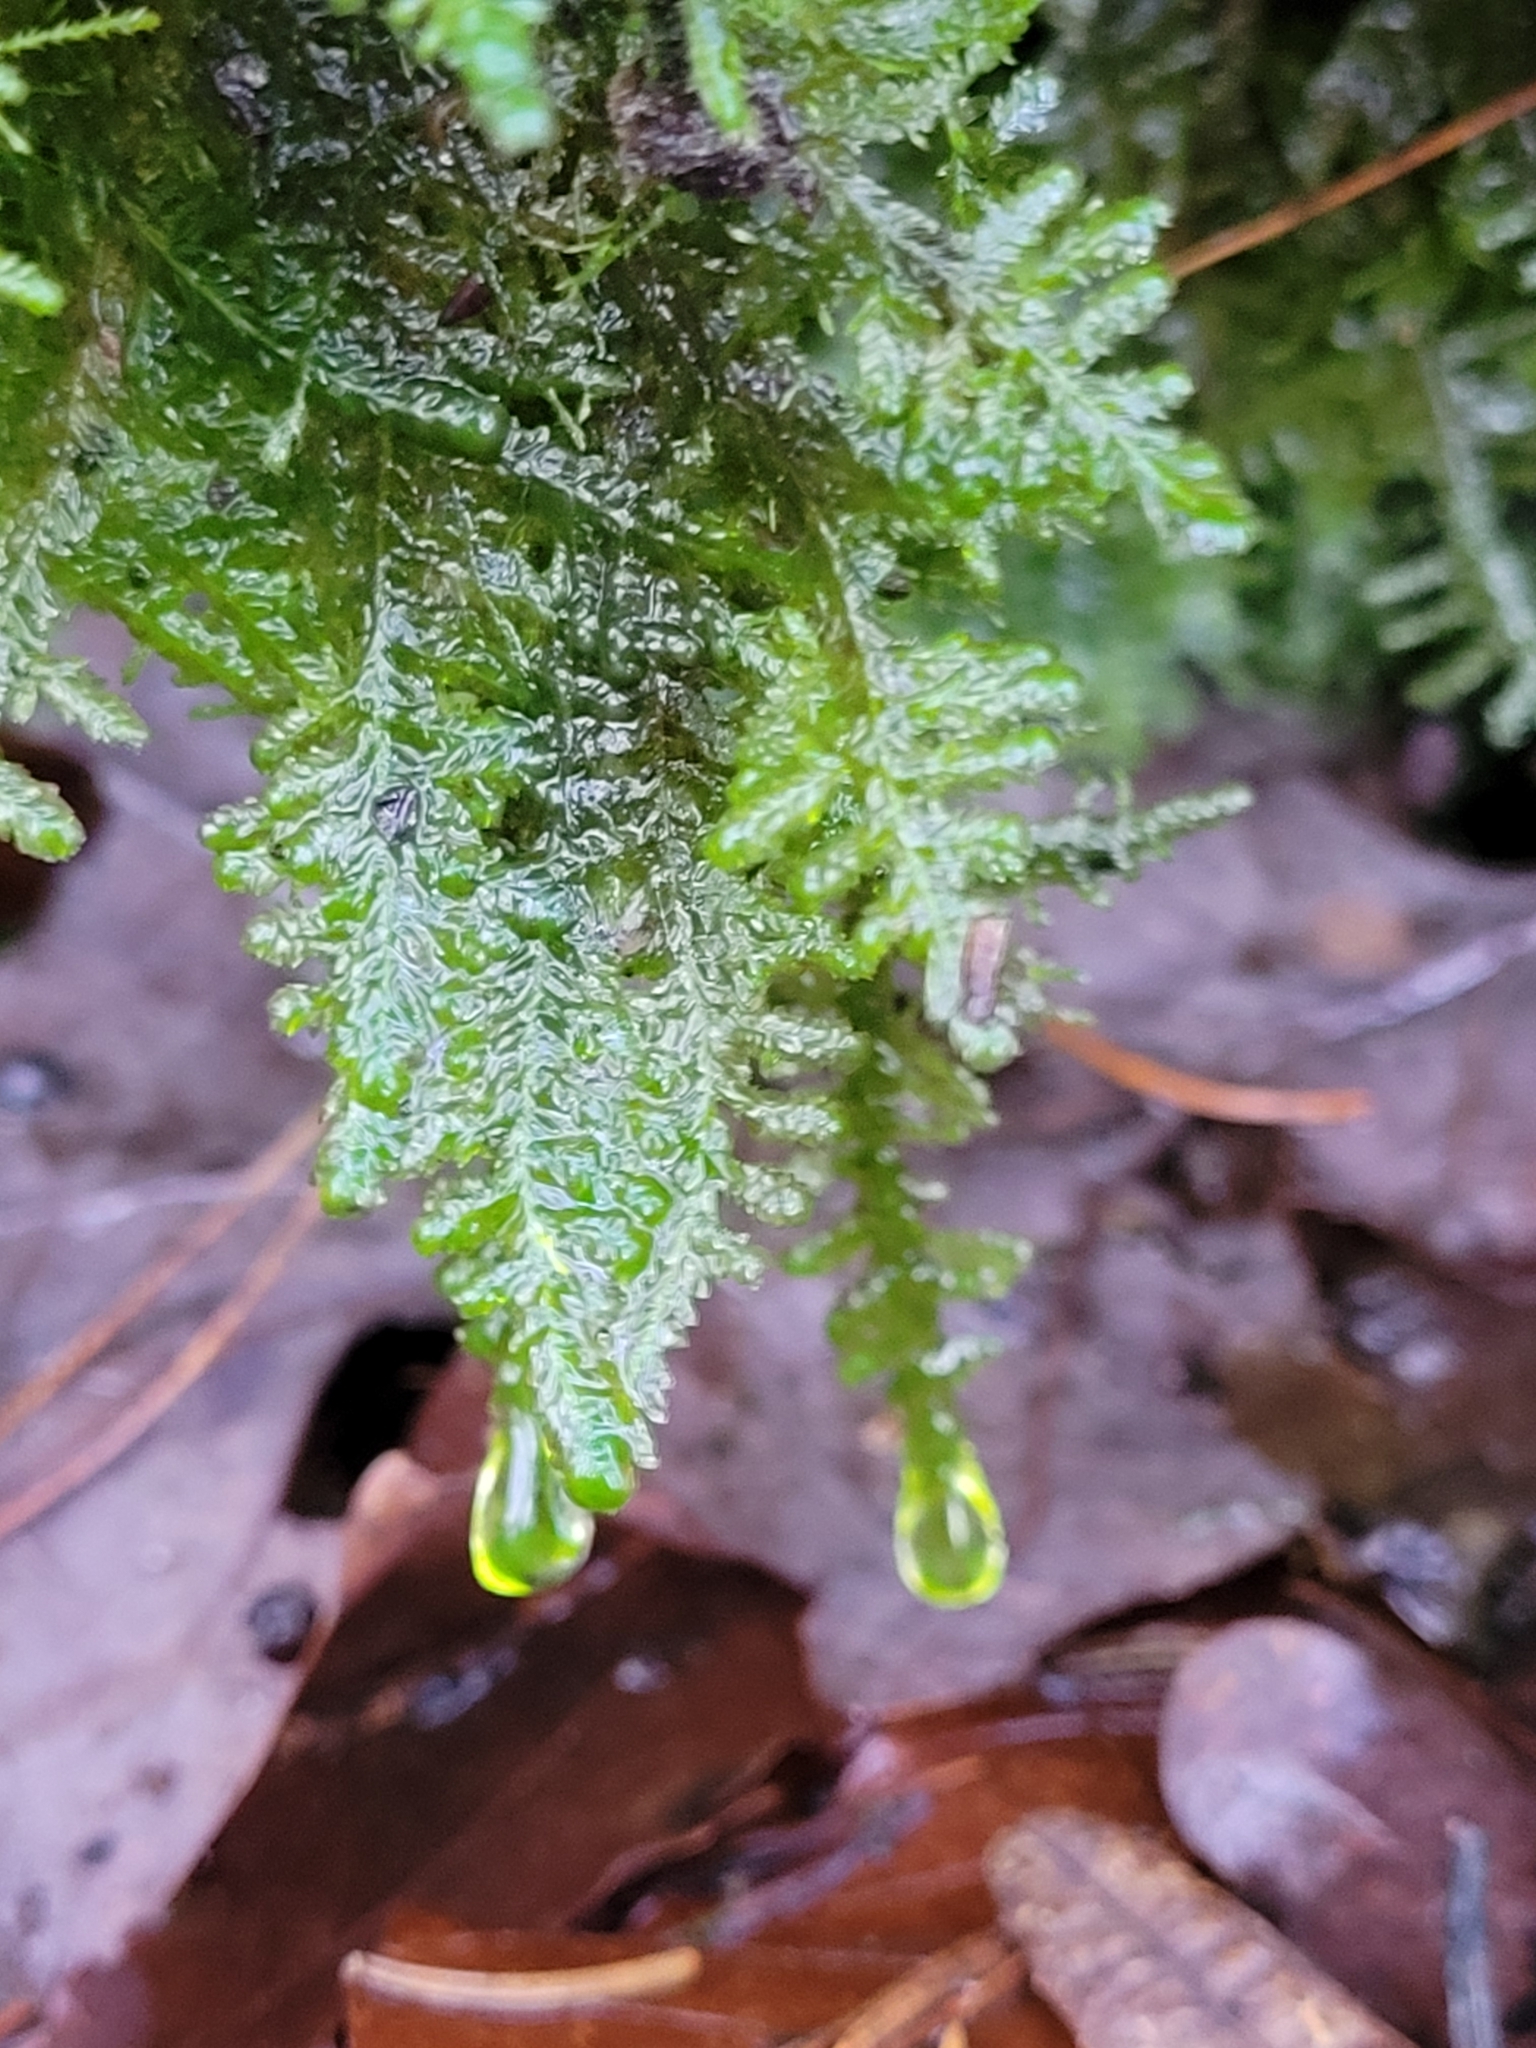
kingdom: Plantae
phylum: Bryophyta
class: Bryopsida
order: Hypnales
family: Neckeraceae
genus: Alleniella
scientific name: Alleniella complanata
